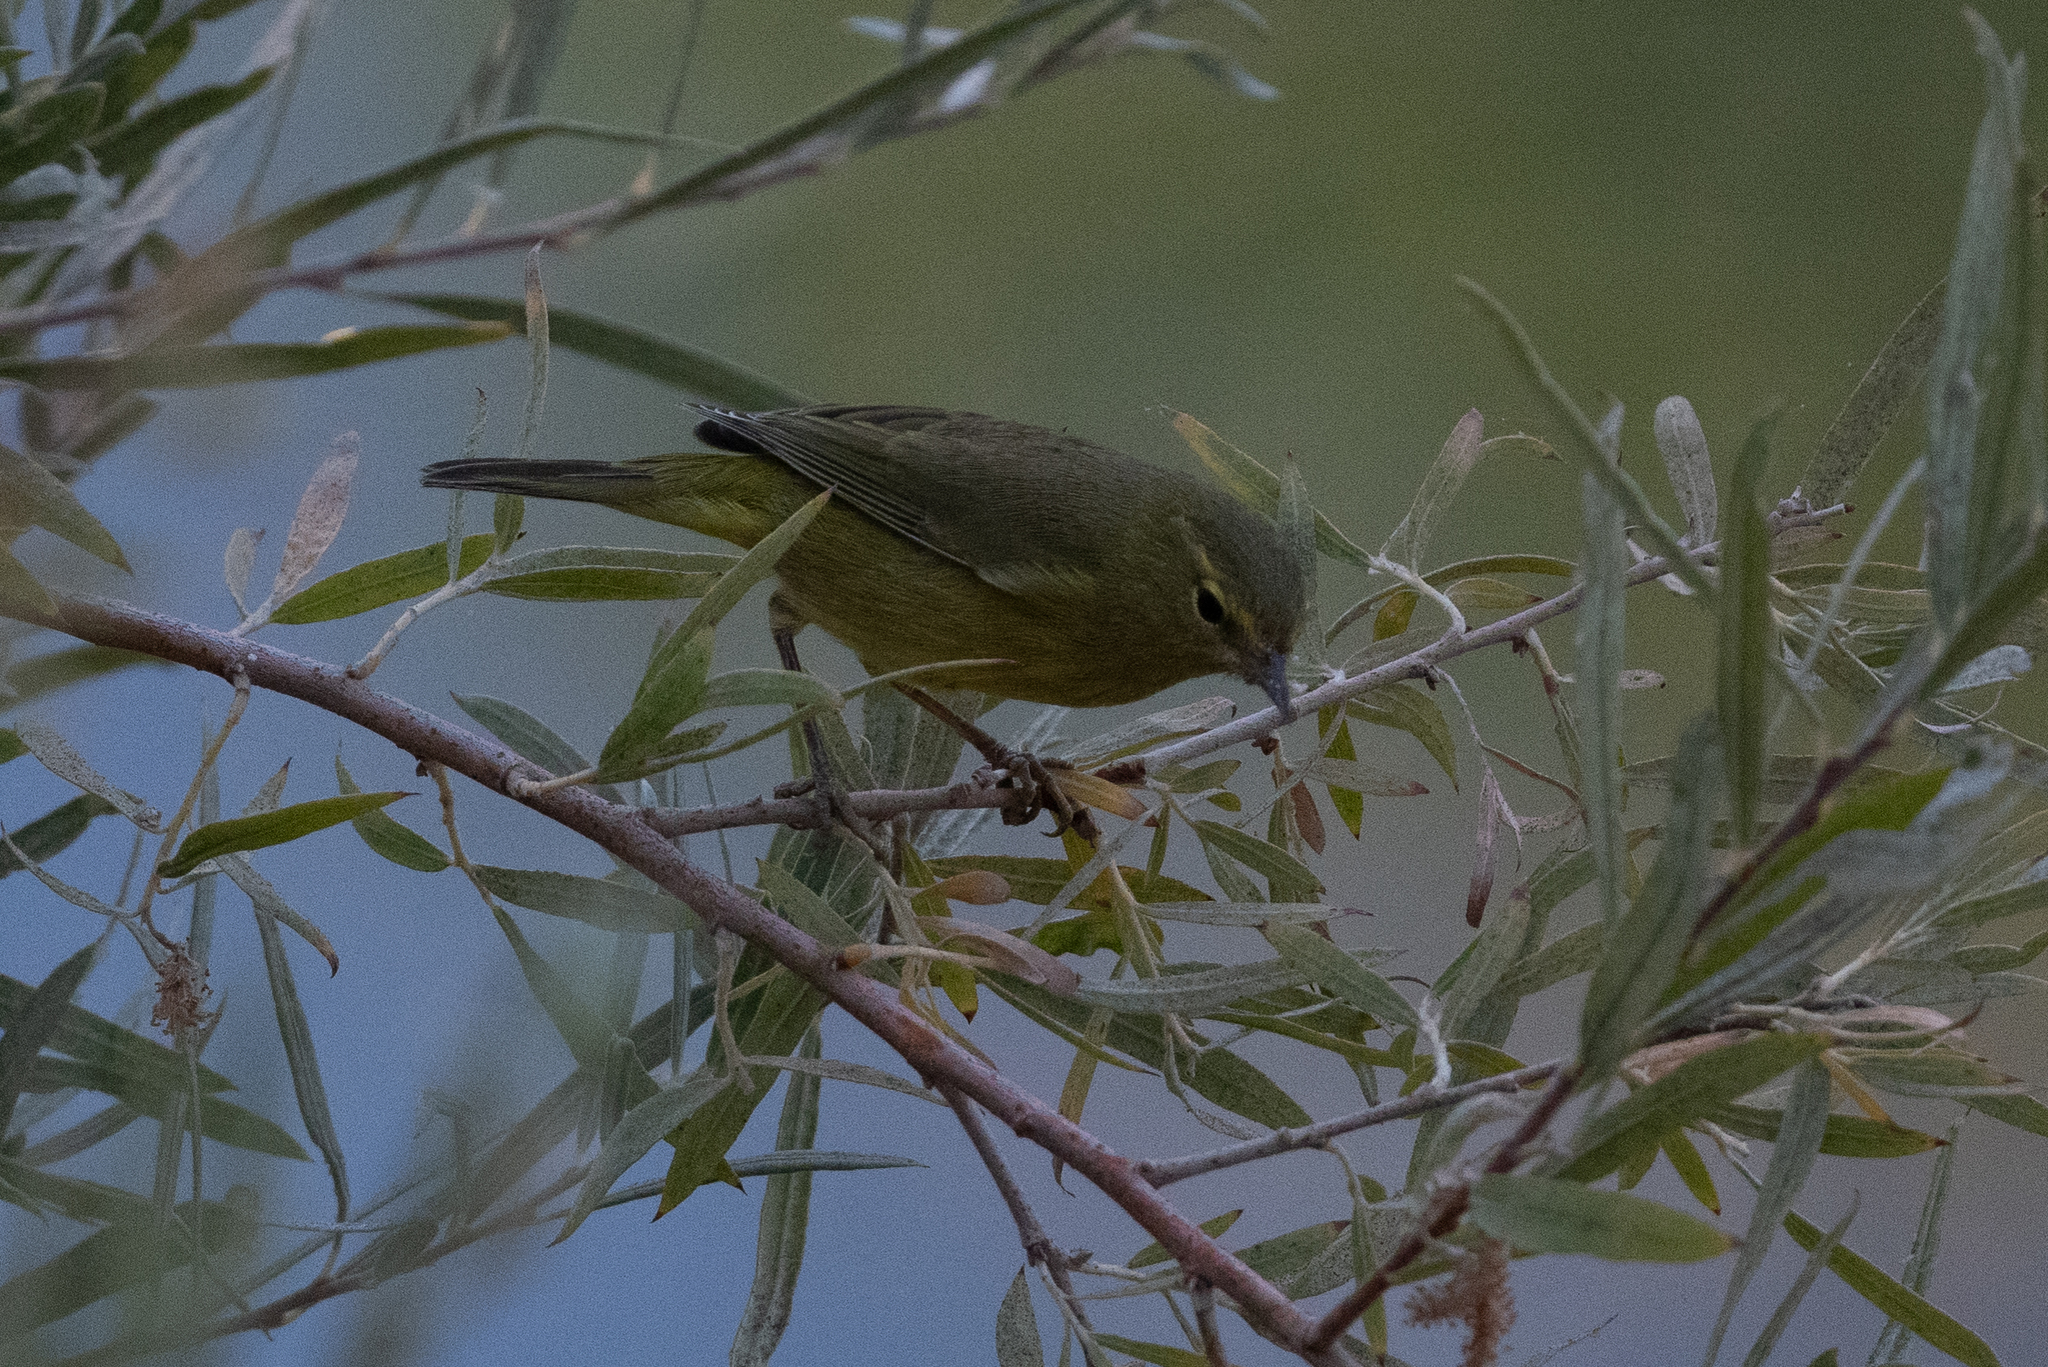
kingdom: Animalia
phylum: Chordata
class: Aves
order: Passeriformes
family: Parulidae
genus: Leiothlypis
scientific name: Leiothlypis celata
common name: Orange-crowned warbler
